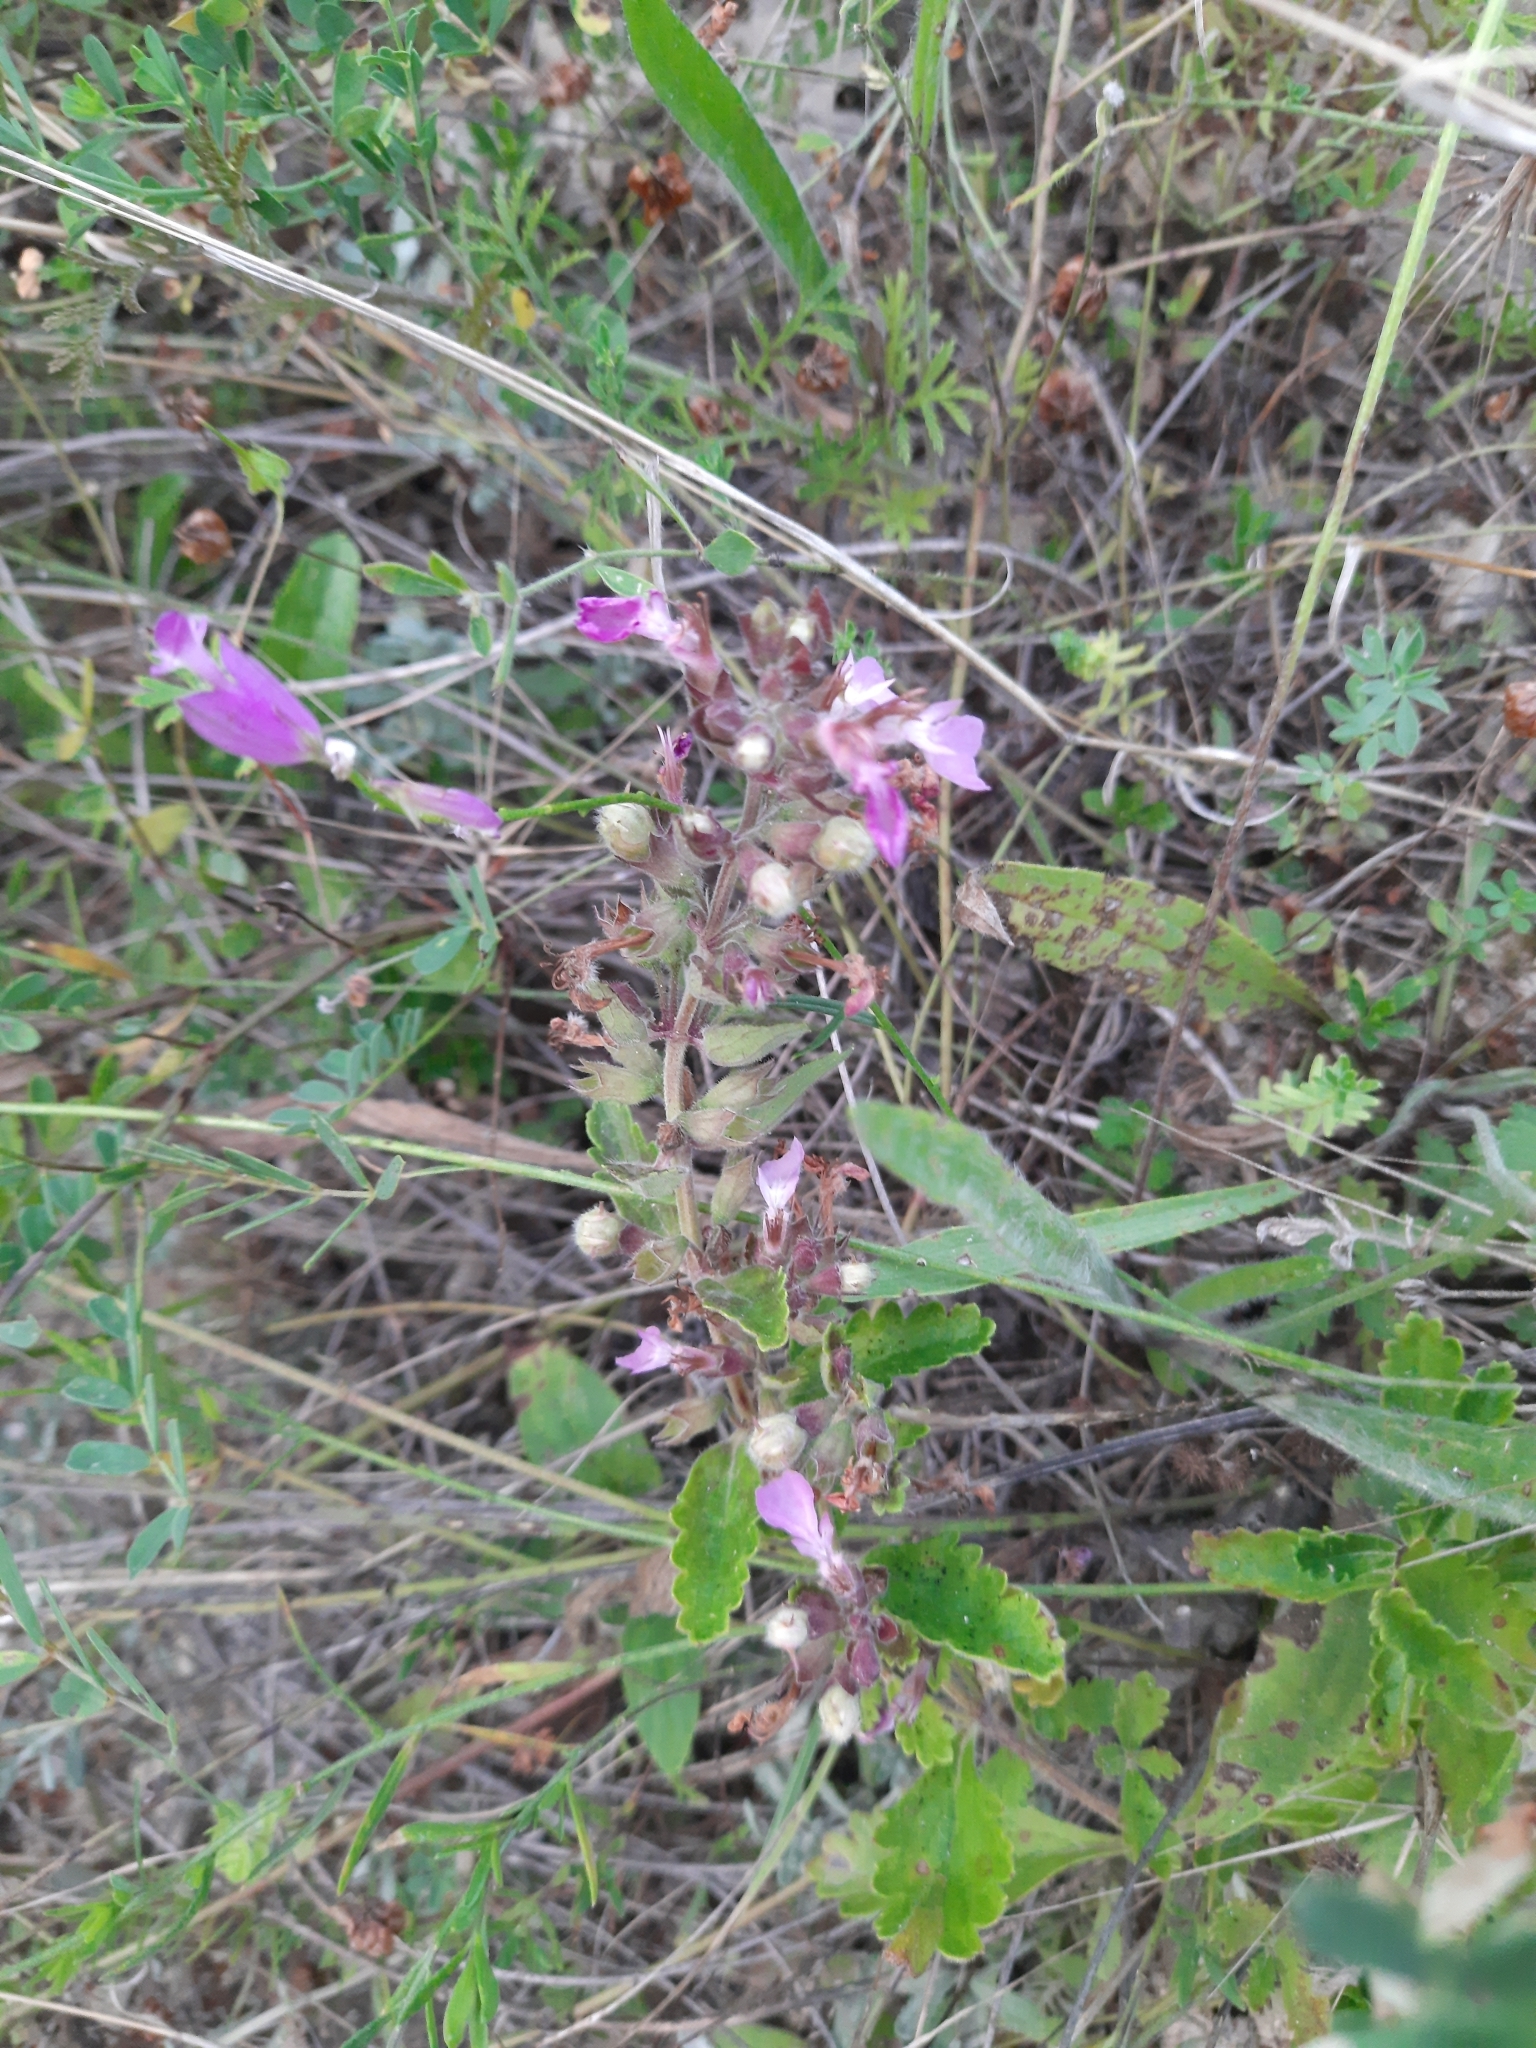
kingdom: Plantae
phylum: Tracheophyta
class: Magnoliopsida
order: Lamiales
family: Lamiaceae
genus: Teucrium
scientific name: Teucrium chamaedrys
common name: Wall germander
